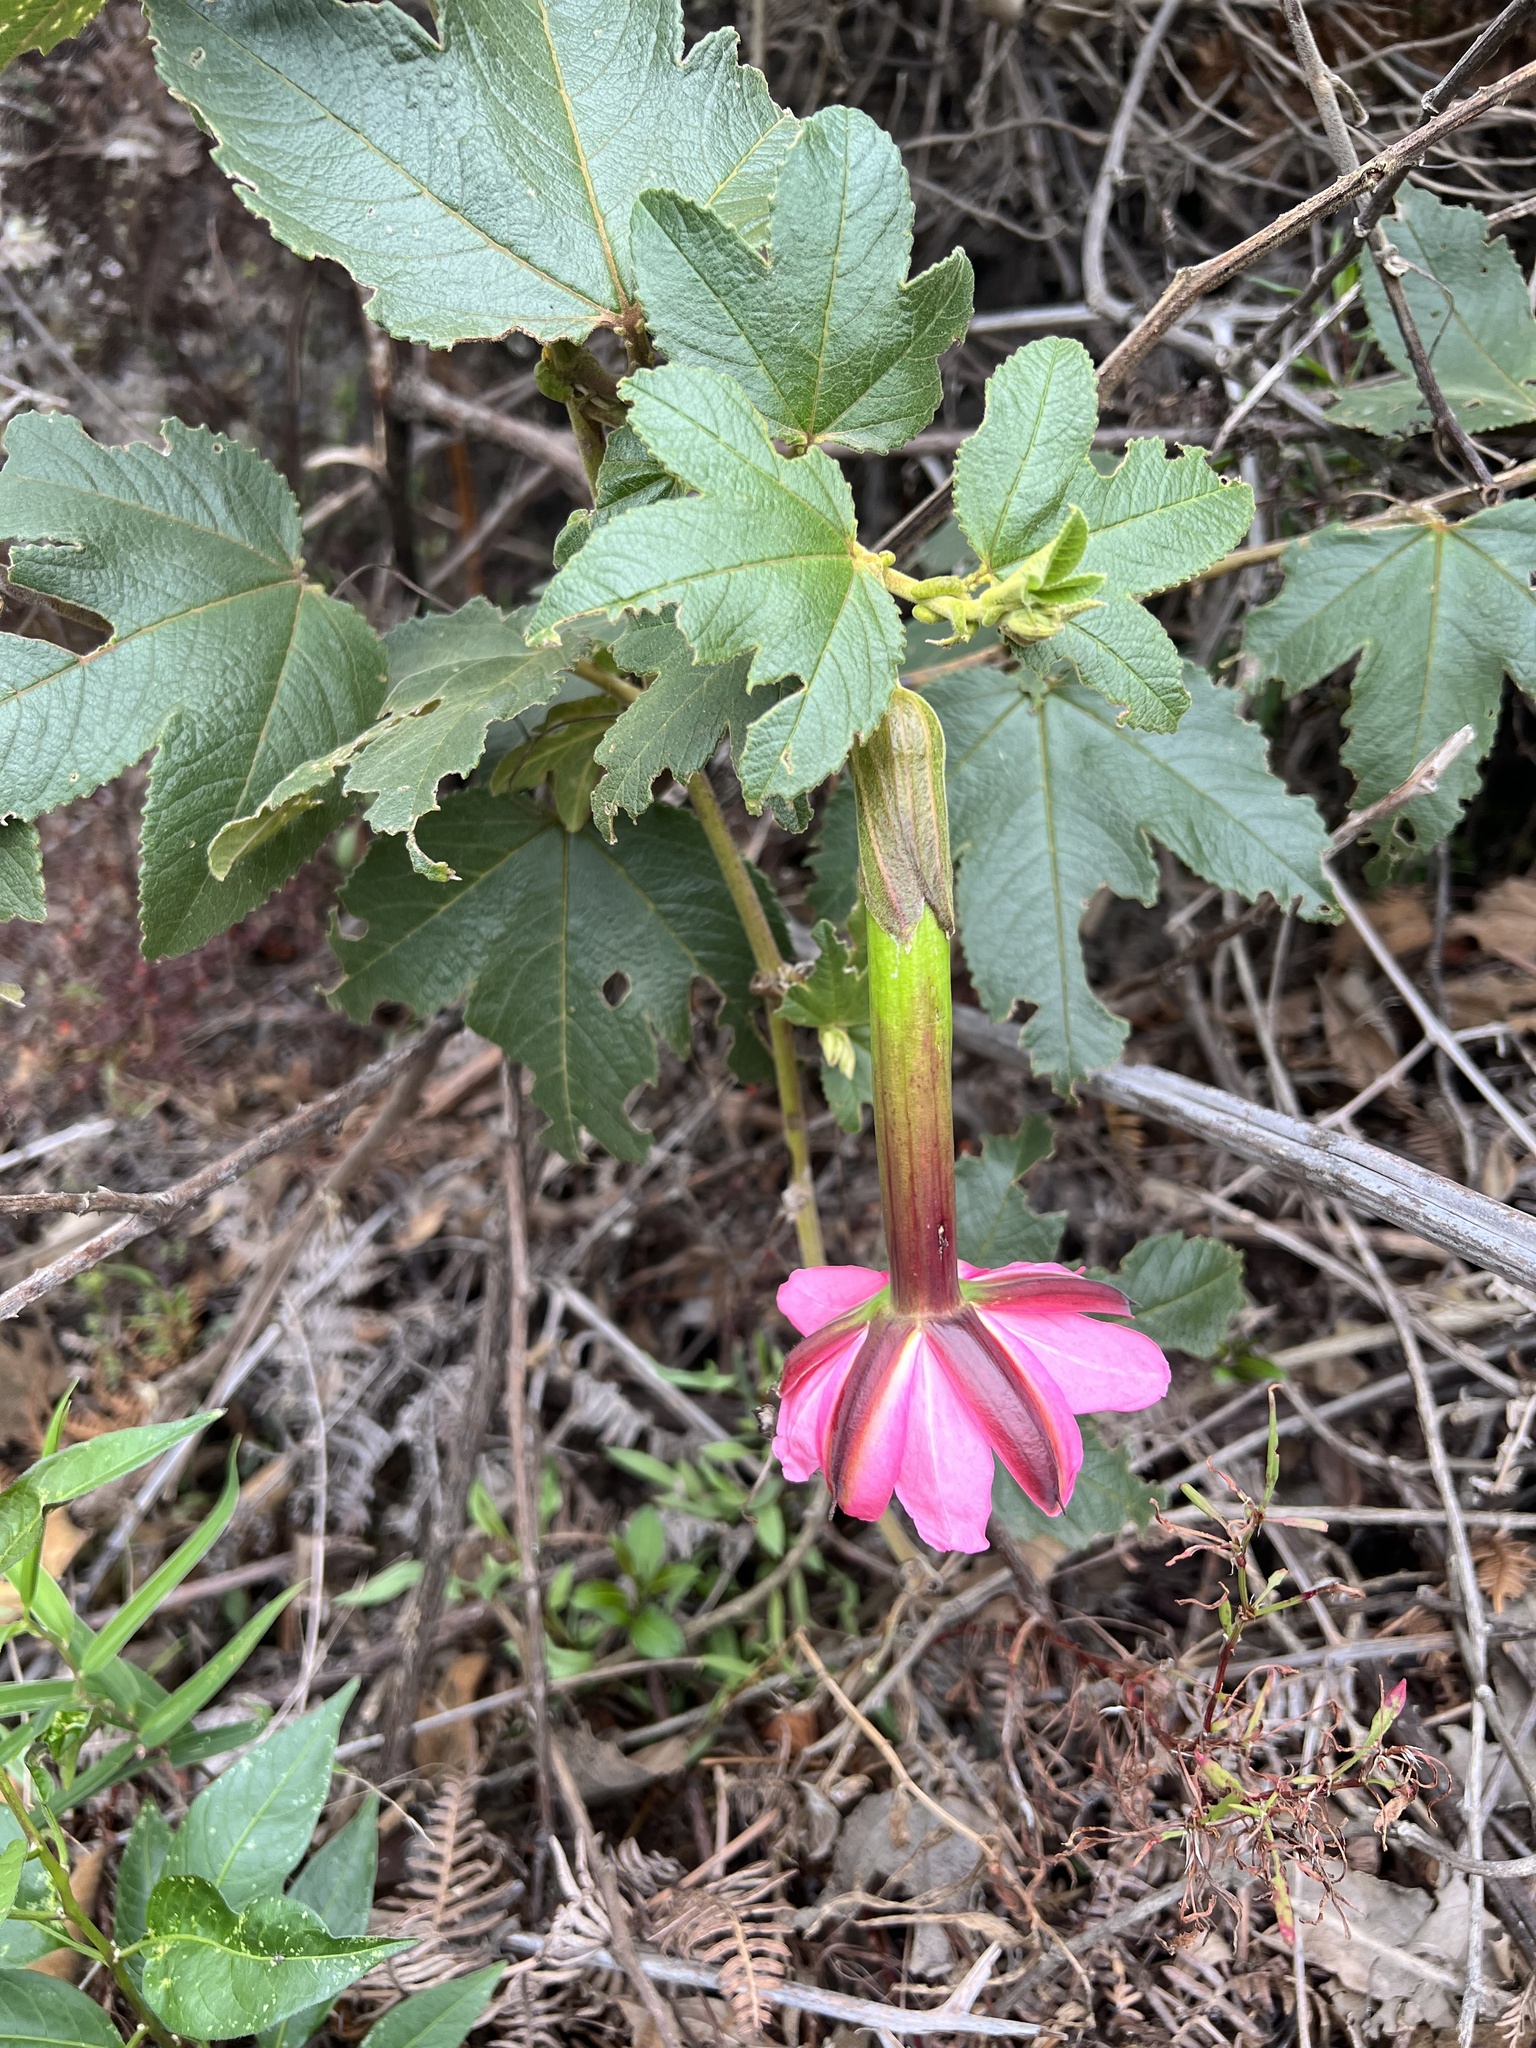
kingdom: Plantae
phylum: Tracheophyta
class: Magnoliopsida
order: Malpighiales
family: Passifloraceae
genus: Passiflora
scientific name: Passiflora tripartita
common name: Banana poka
